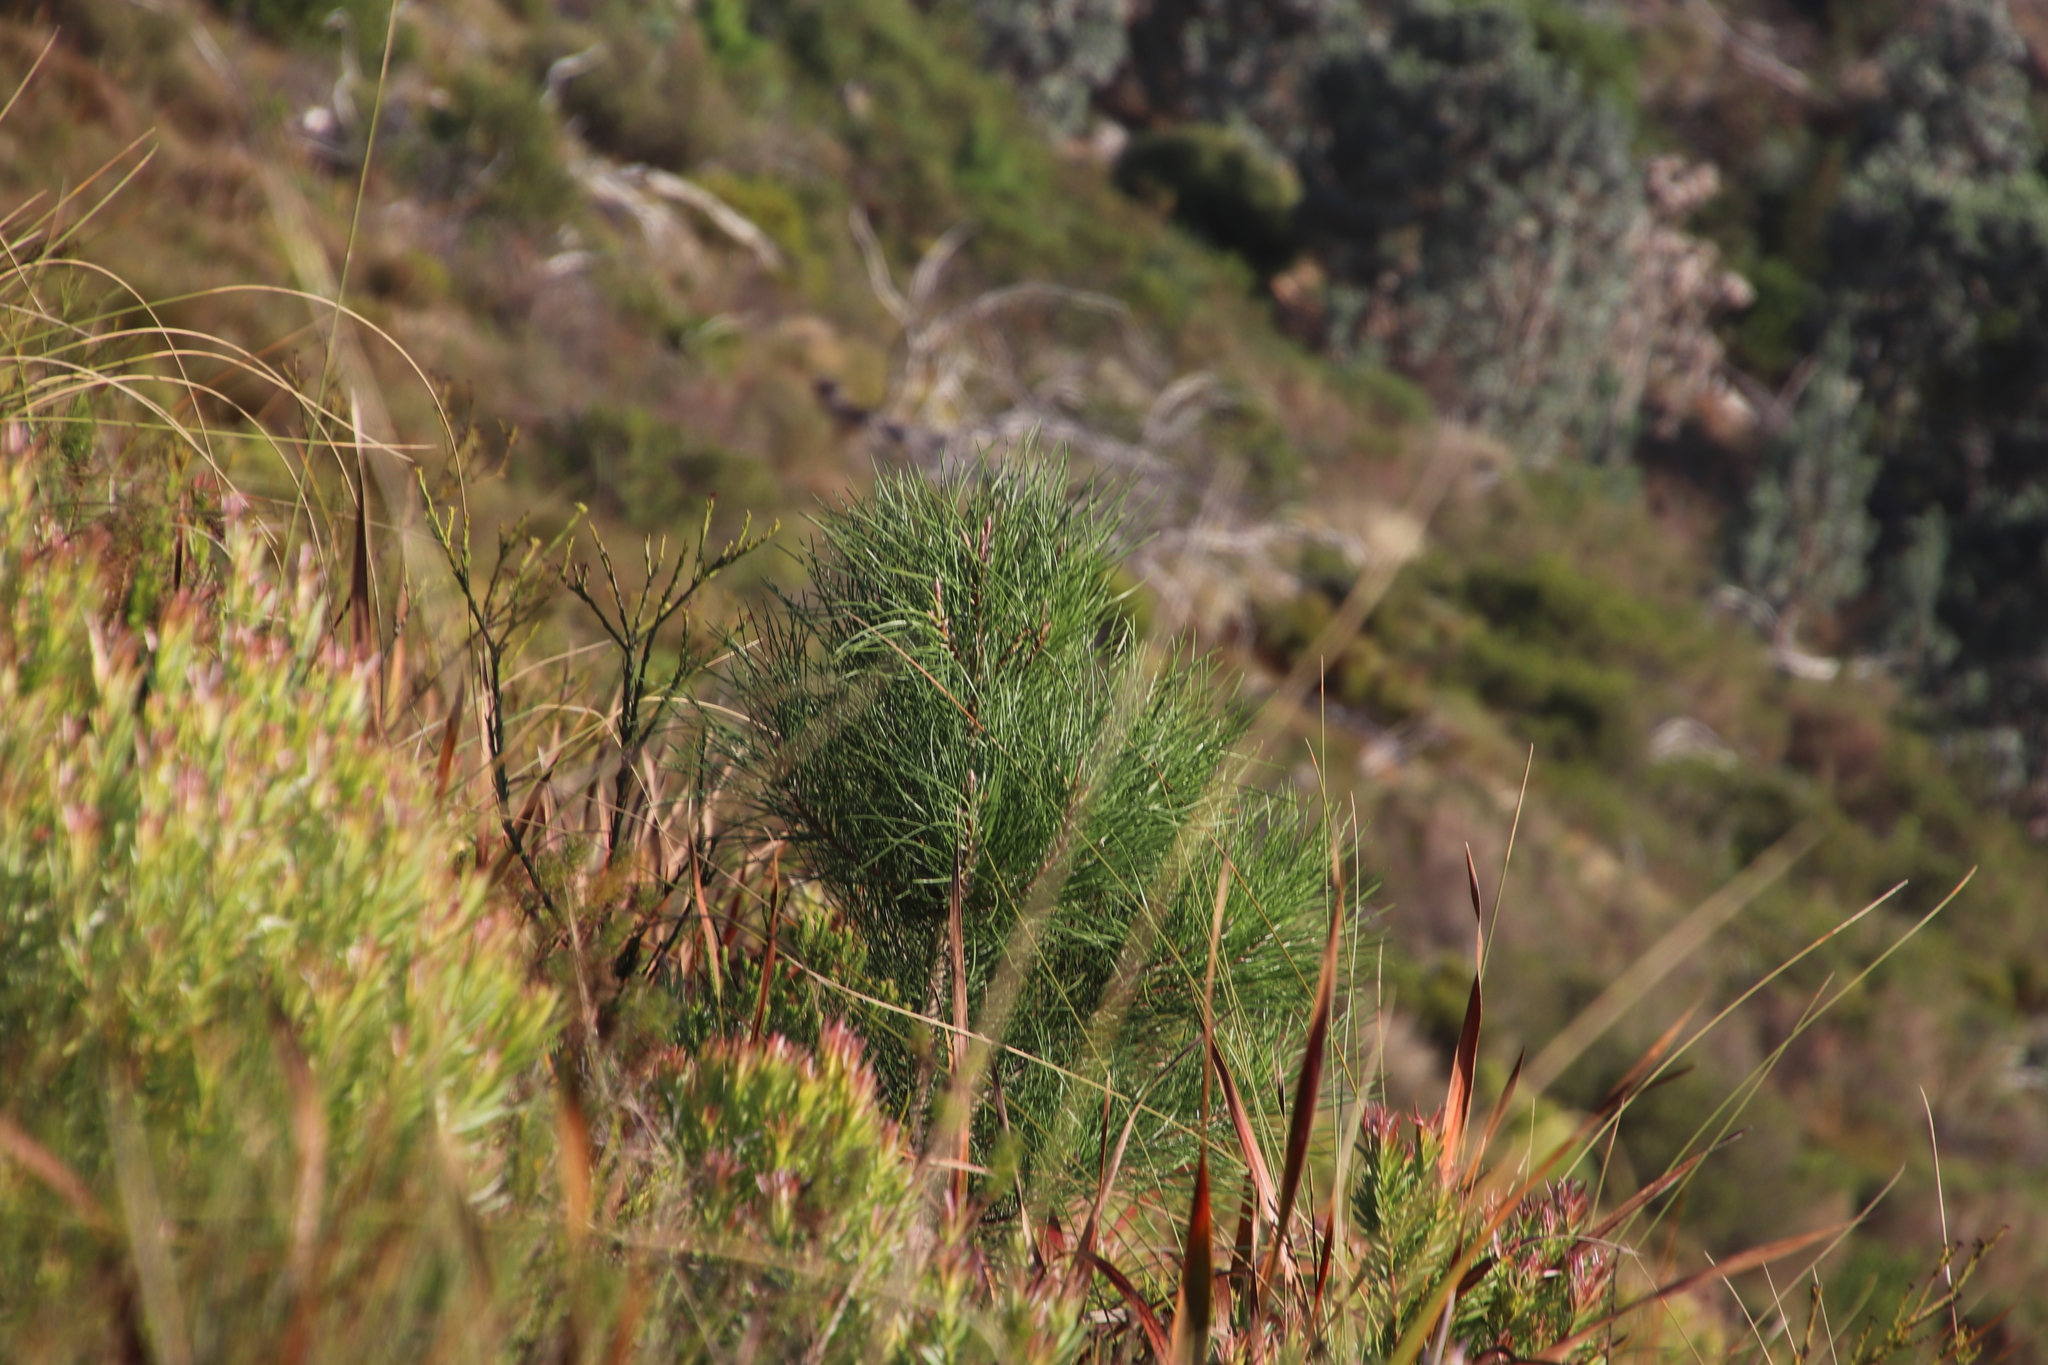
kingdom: Plantae
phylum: Tracheophyta
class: Pinopsida
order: Pinales
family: Pinaceae
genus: Pinus
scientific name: Pinus pinaster
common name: Maritime pine
